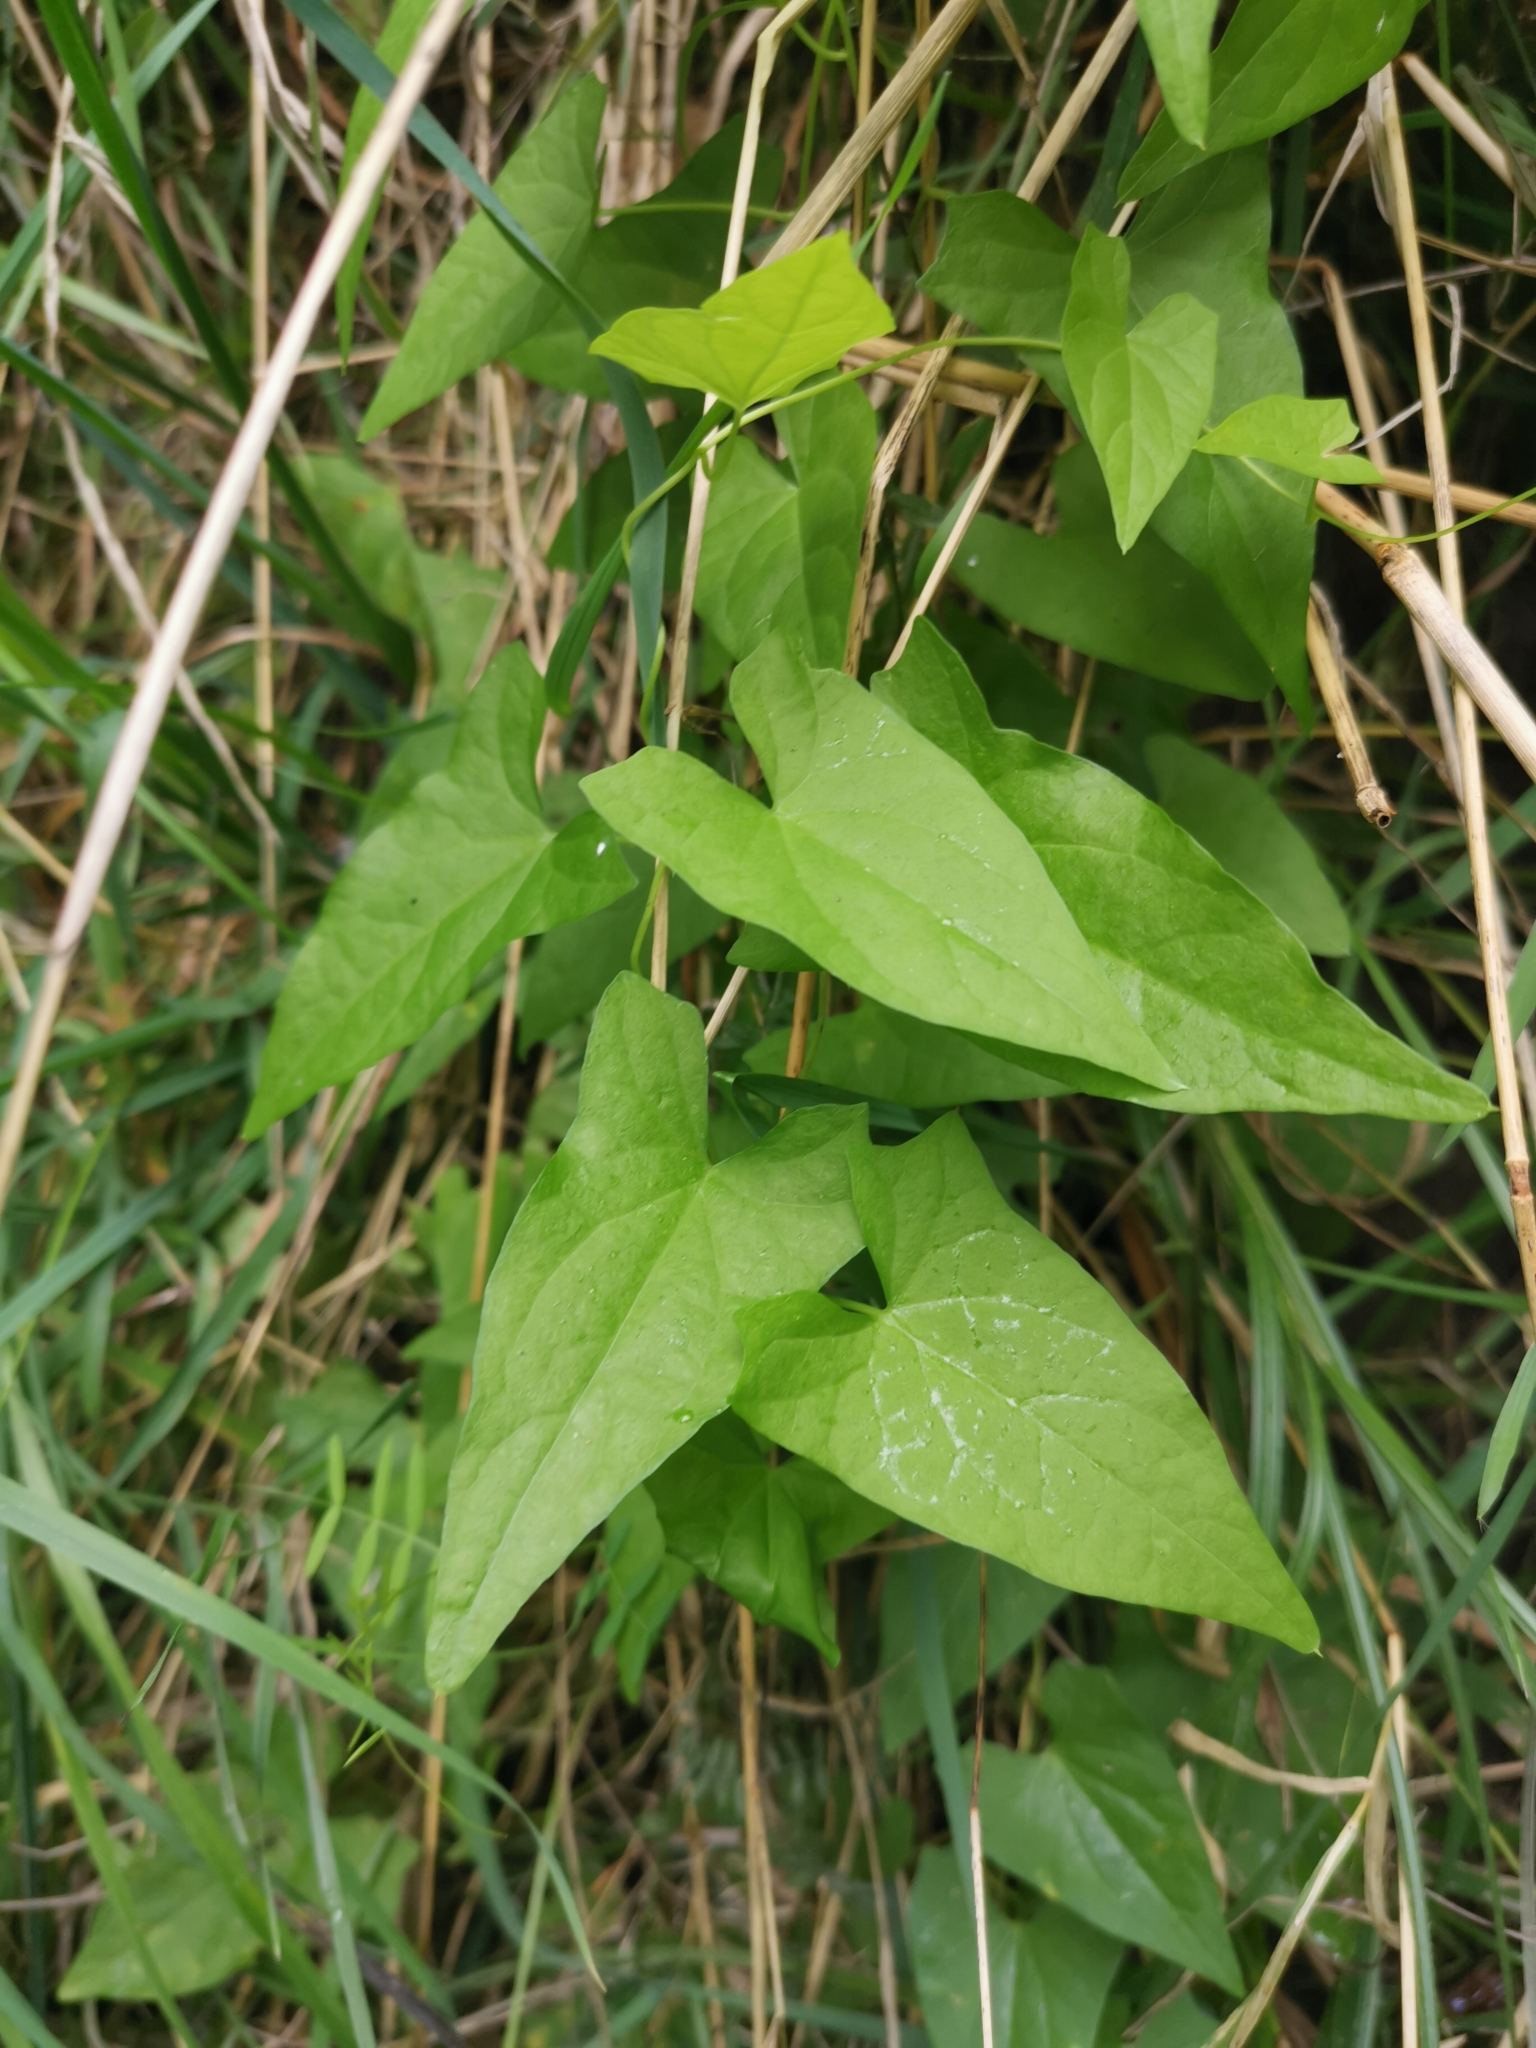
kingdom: Plantae
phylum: Tracheophyta
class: Magnoliopsida
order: Solanales
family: Convolvulaceae
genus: Calystegia
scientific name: Calystegia sepium
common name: Hedge bindweed
